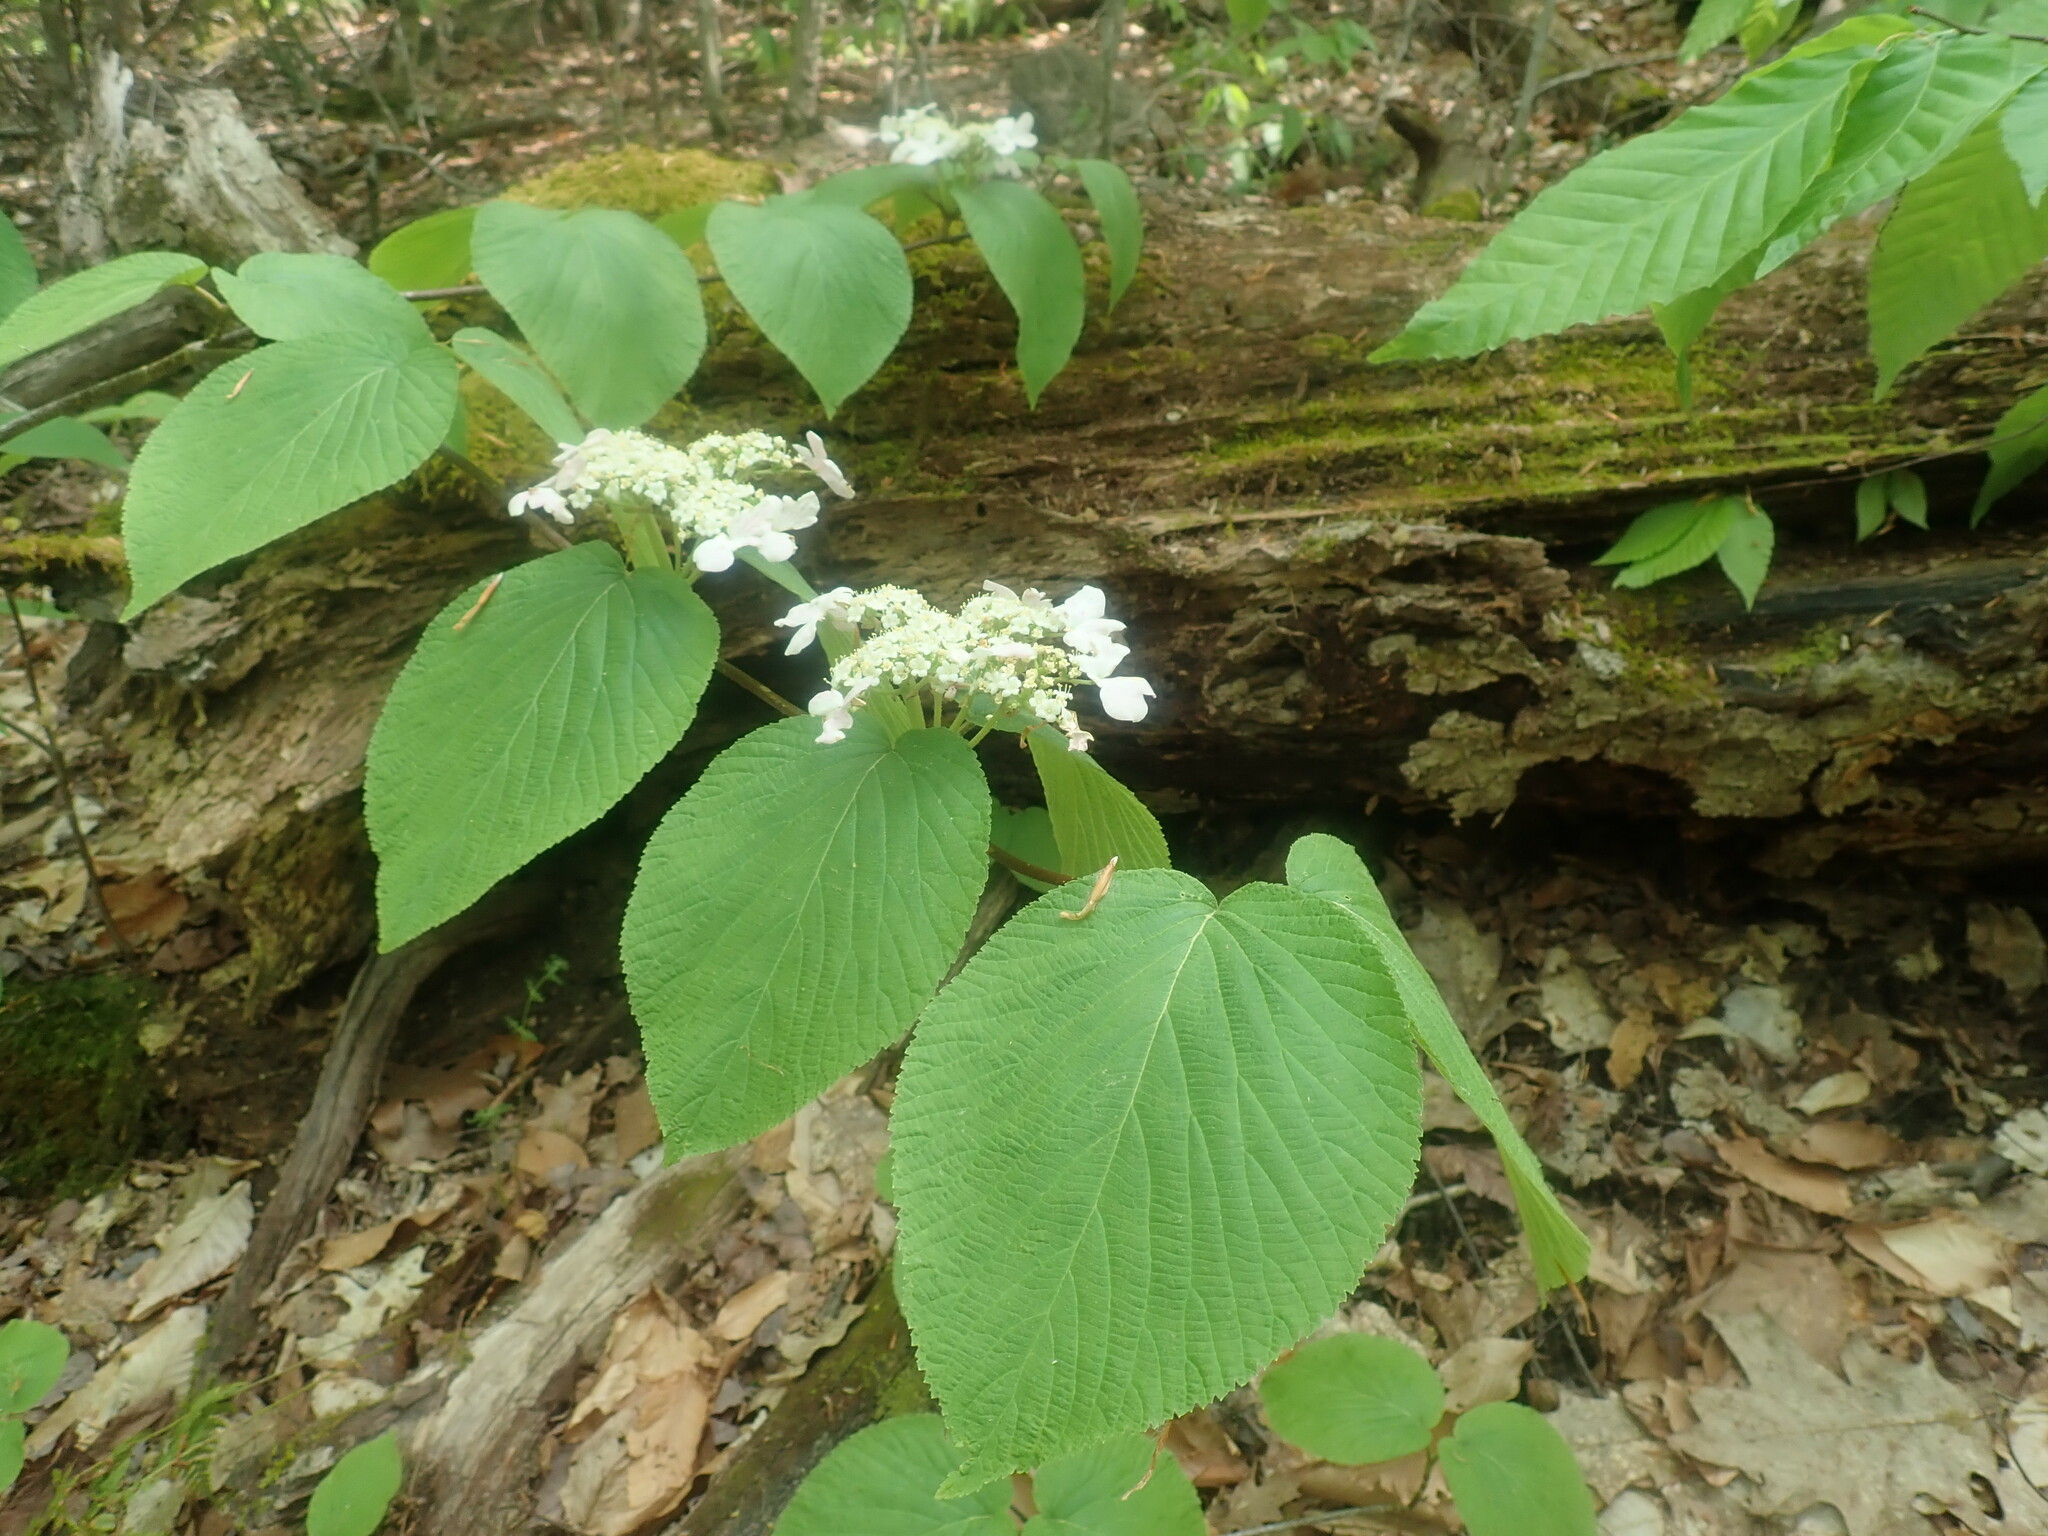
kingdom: Plantae
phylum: Tracheophyta
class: Magnoliopsida
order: Dipsacales
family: Viburnaceae
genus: Viburnum
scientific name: Viburnum lantanoides
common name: Hobblebush
